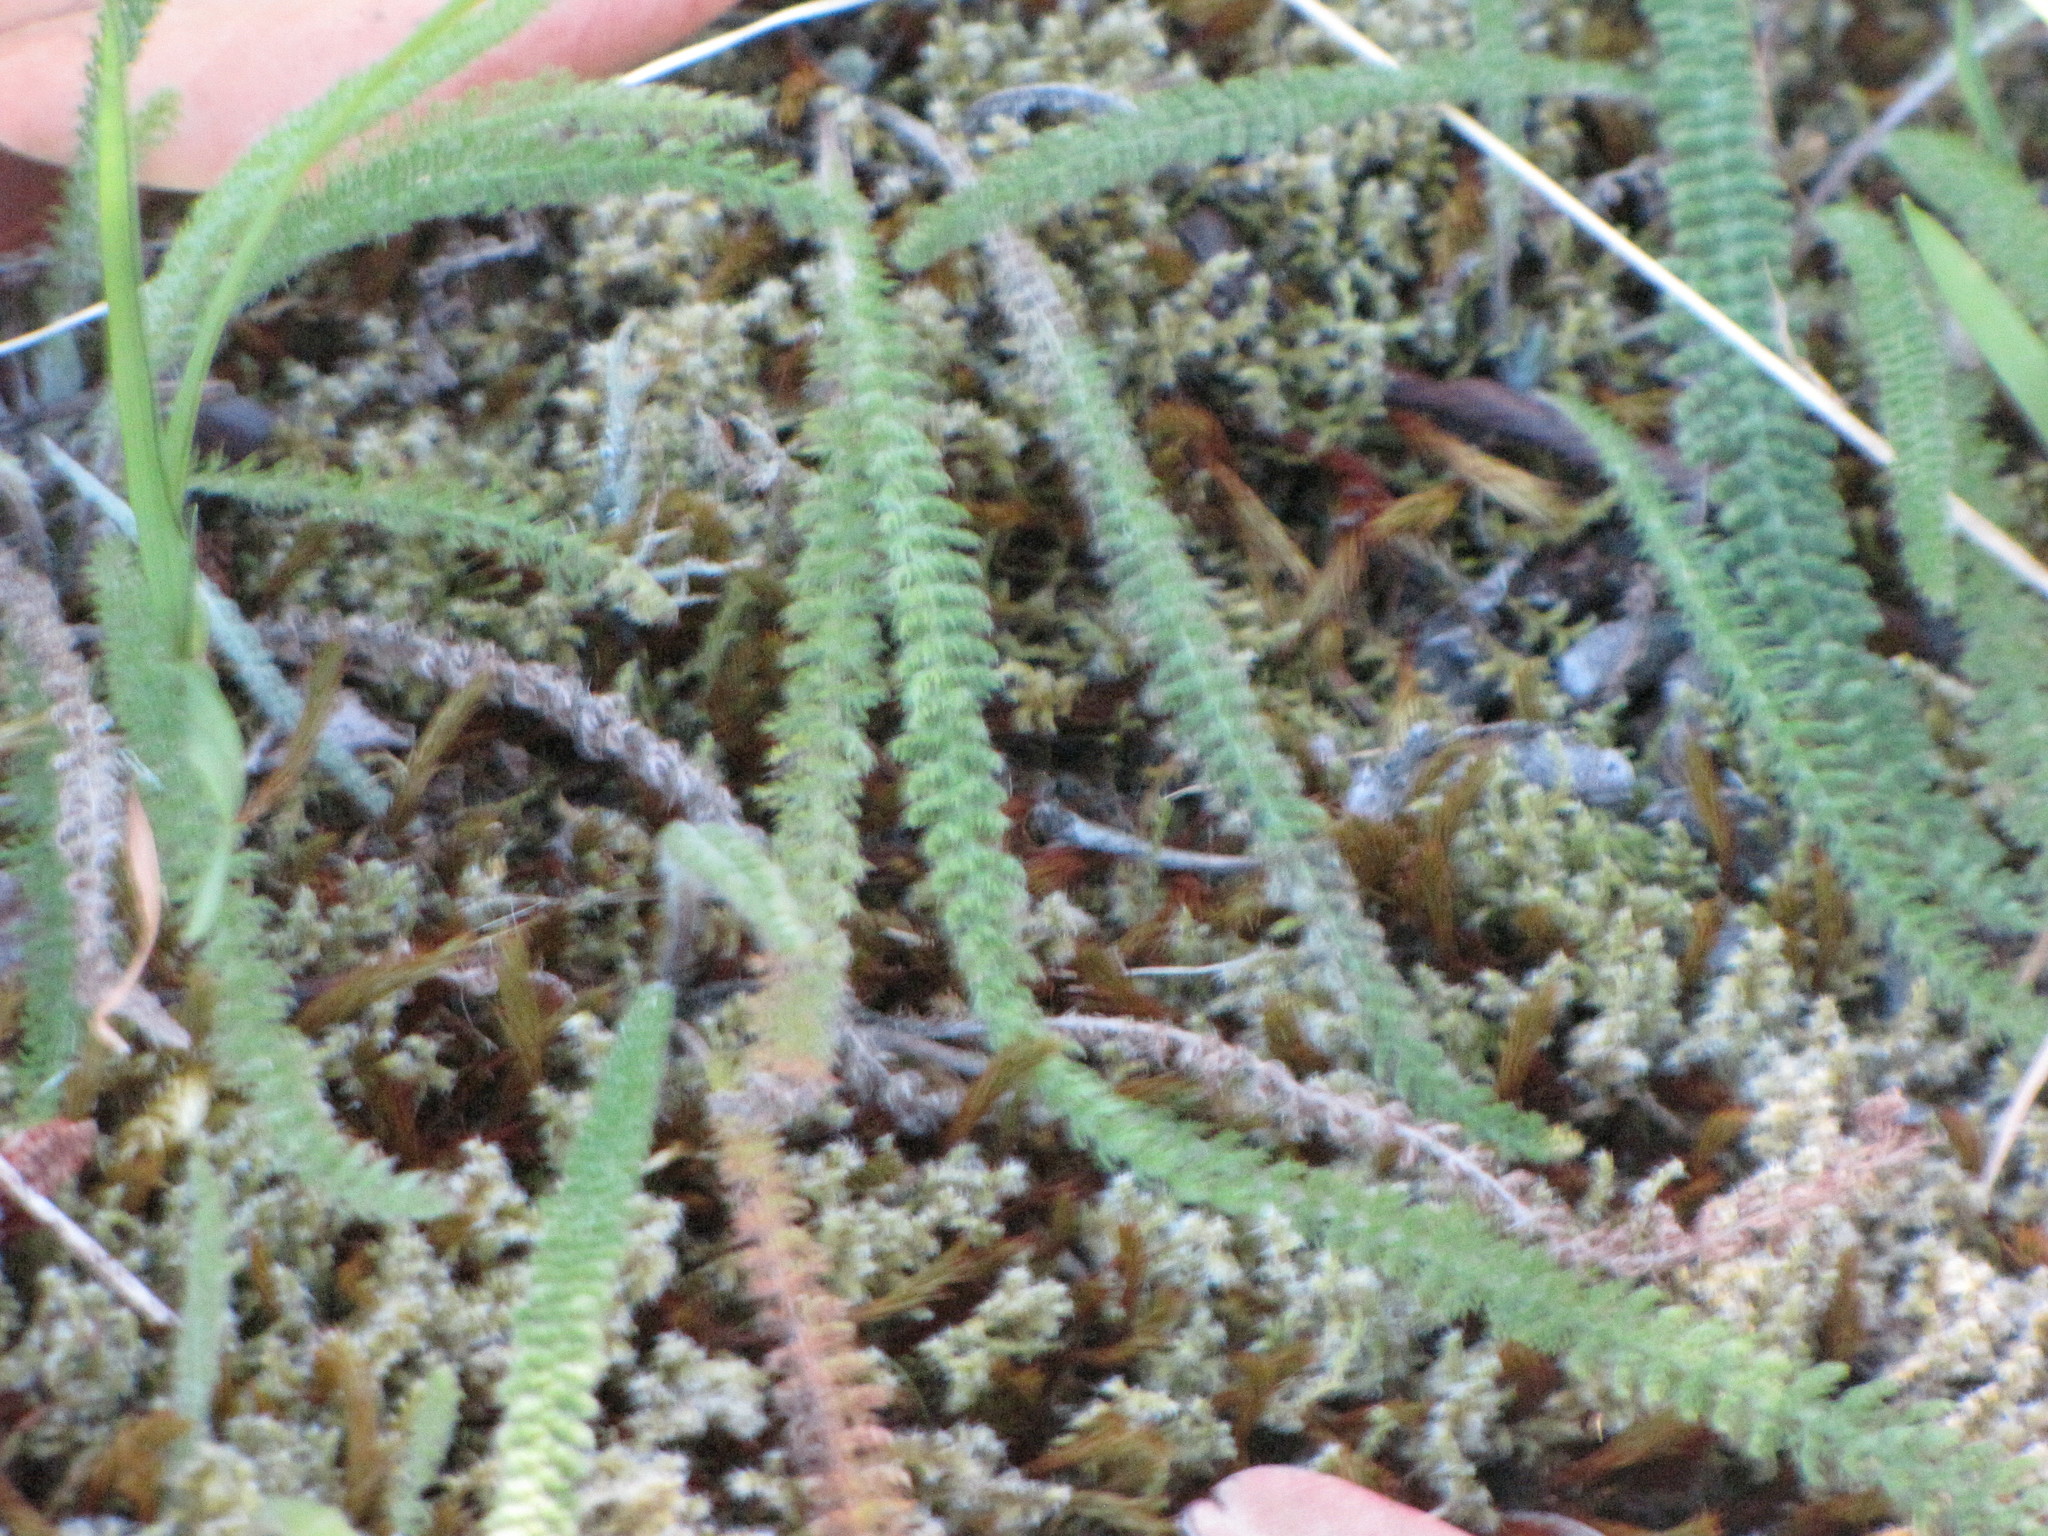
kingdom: Plantae
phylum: Tracheophyta
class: Magnoliopsida
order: Asterales
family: Asteraceae
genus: Achillea
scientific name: Achillea millefolium
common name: Yarrow
